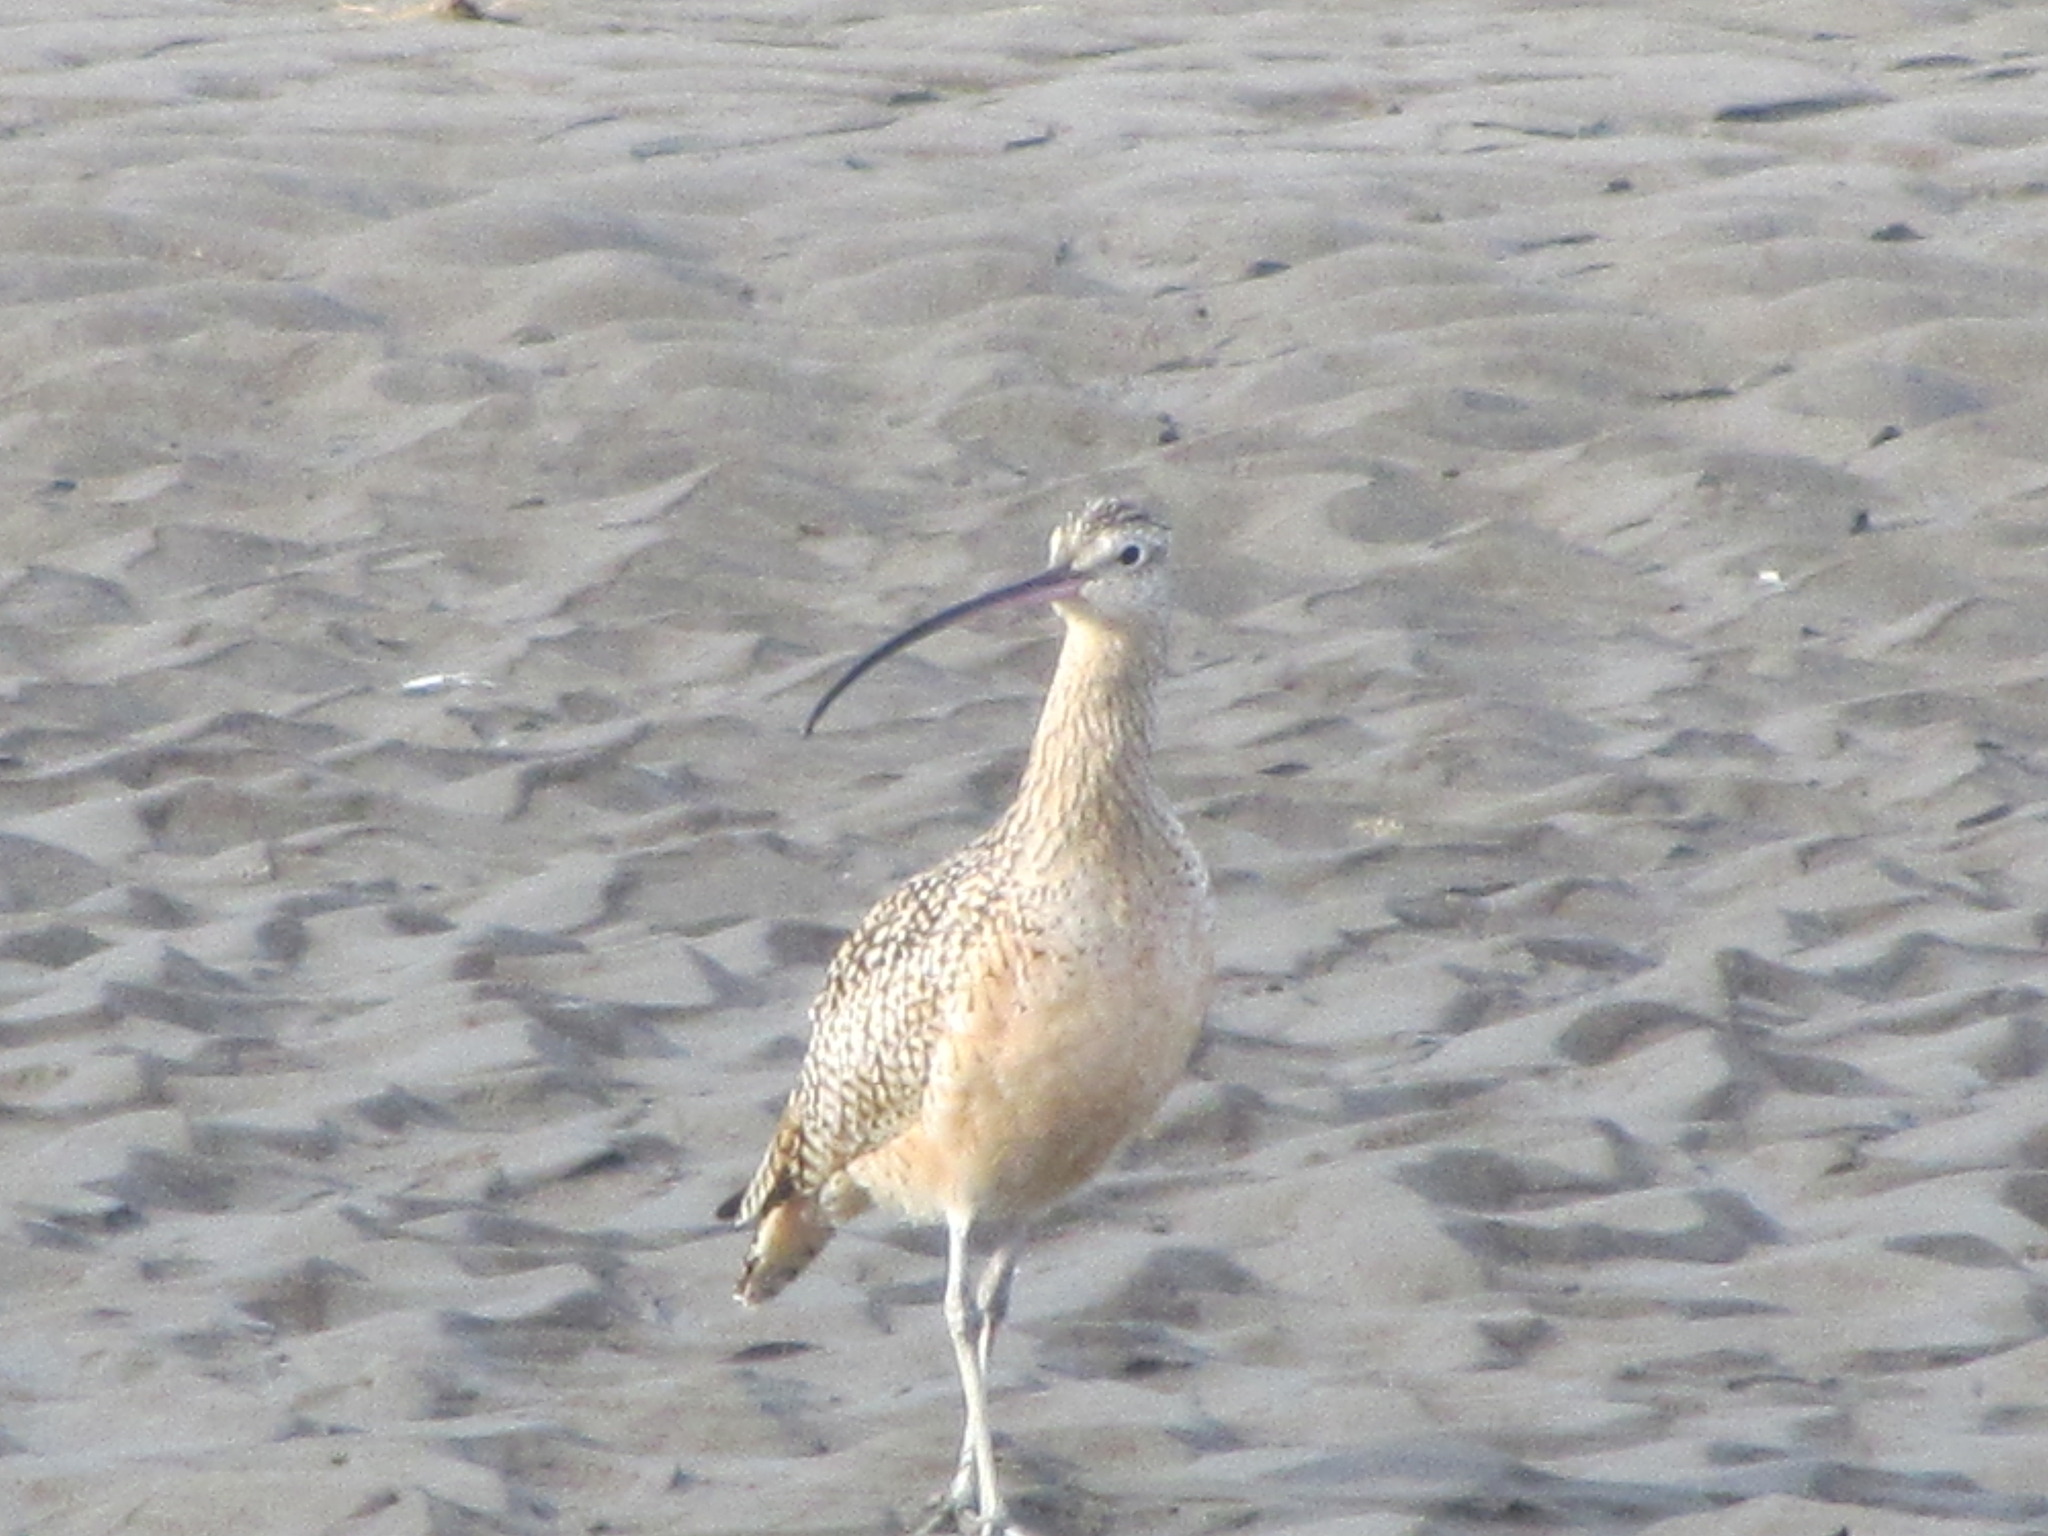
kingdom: Animalia
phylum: Chordata
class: Aves
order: Charadriiformes
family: Scolopacidae
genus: Numenius
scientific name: Numenius americanus
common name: Long-billed curlew
